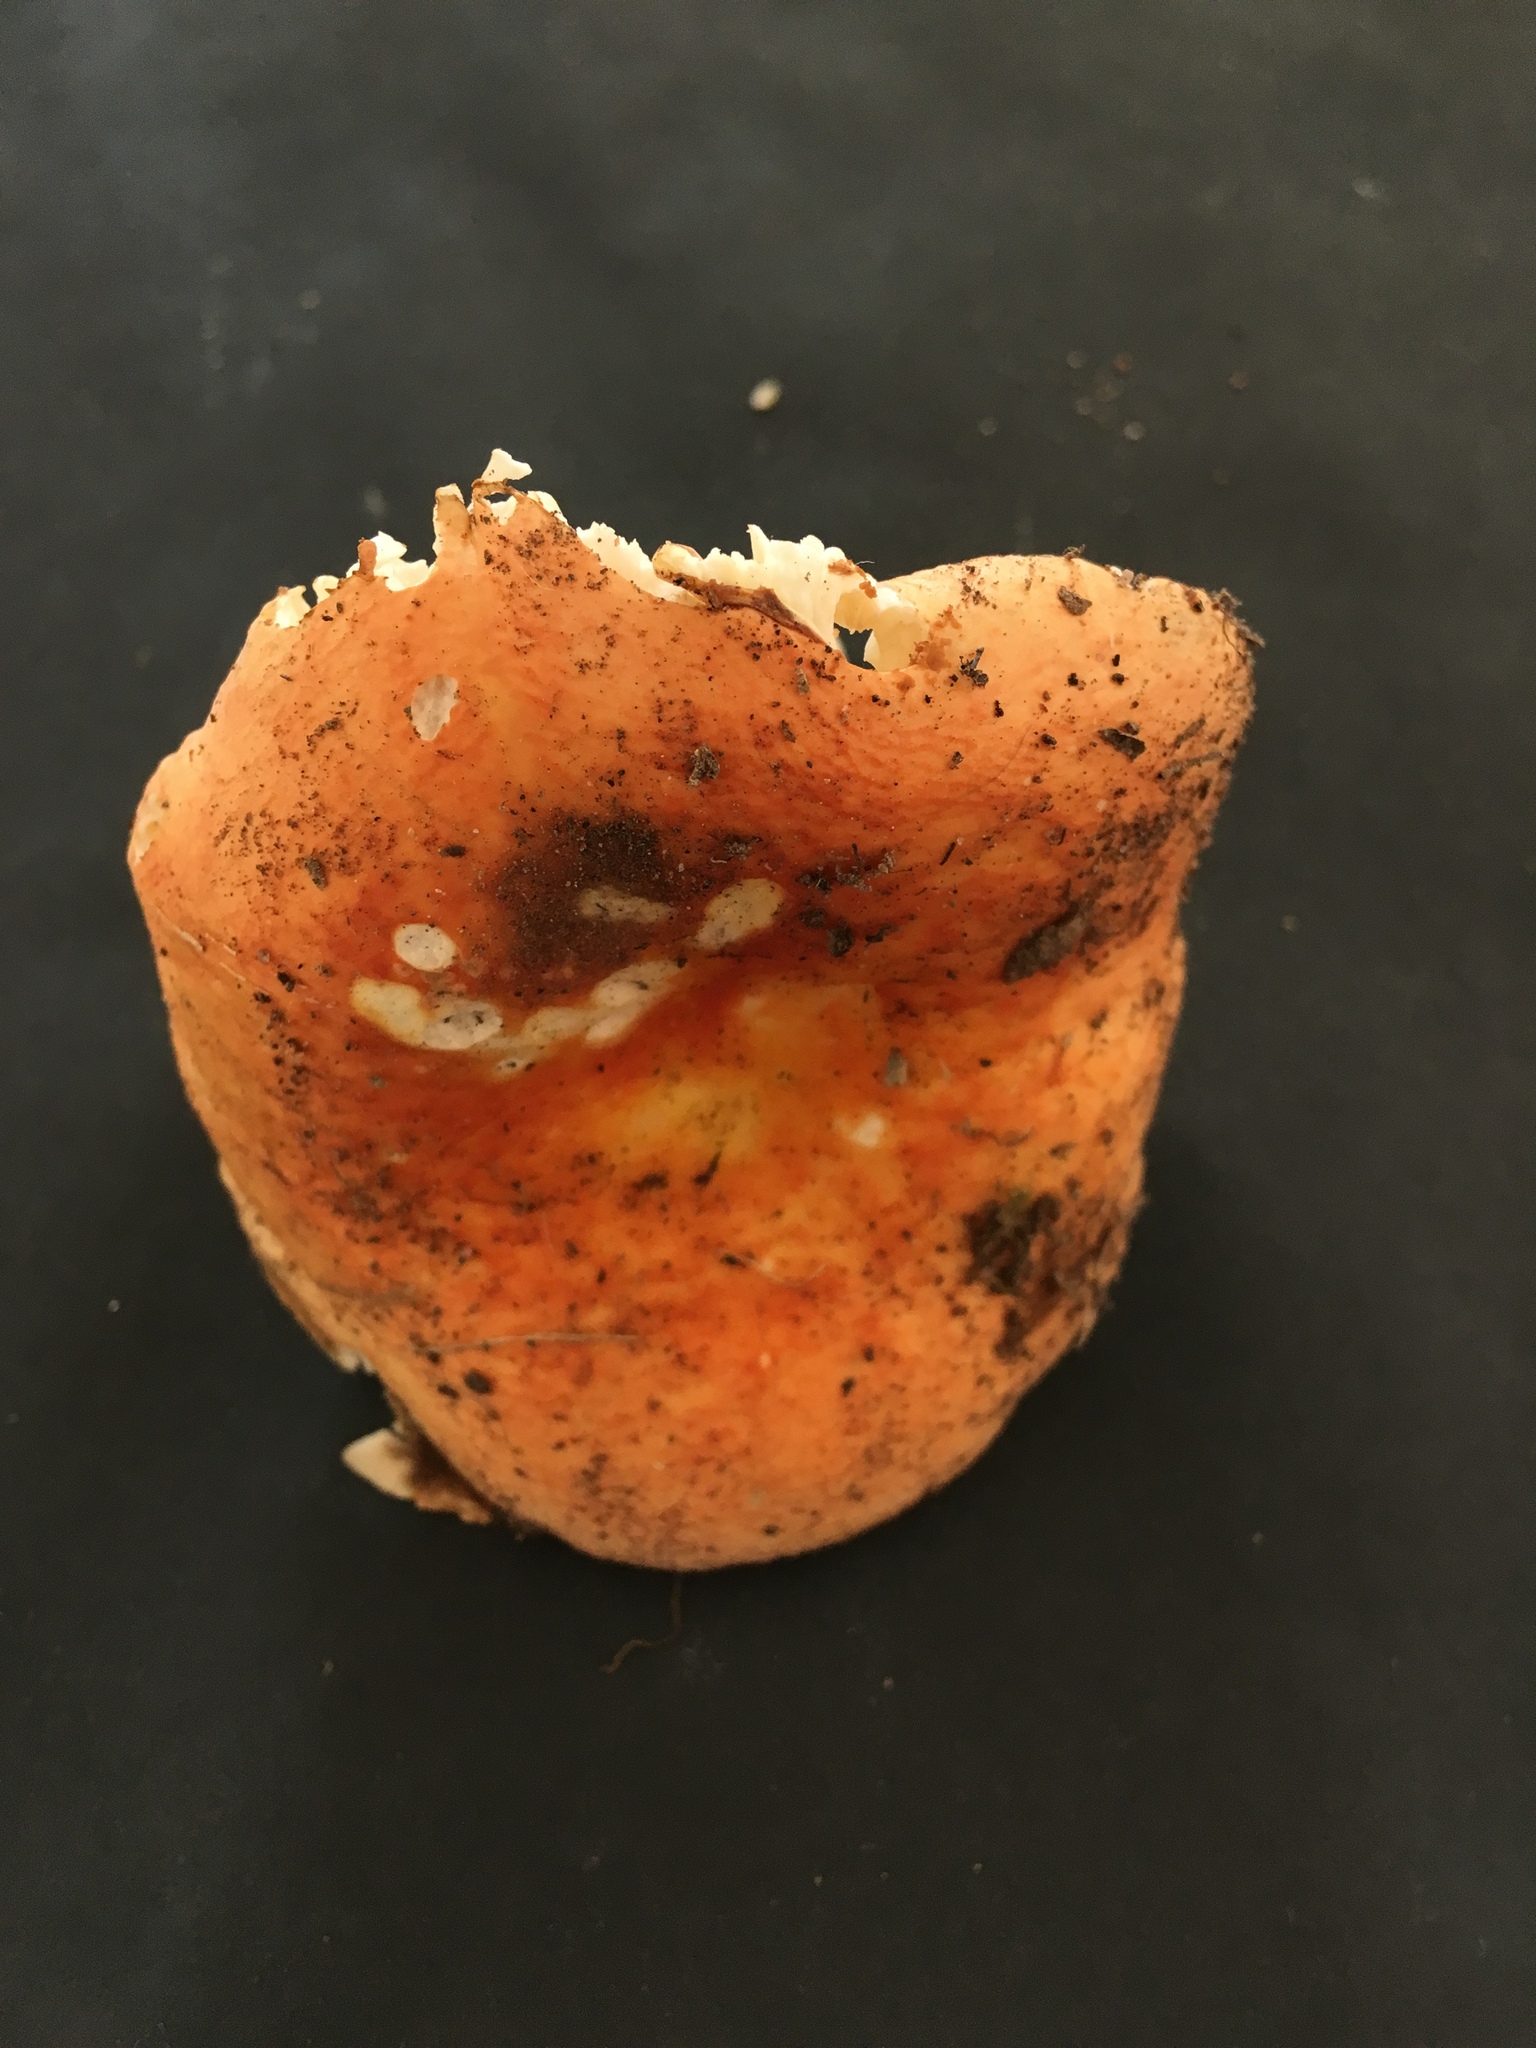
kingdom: Fungi
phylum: Basidiomycota
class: Agaricomycetes
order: Russulales
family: Russulaceae
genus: Russula
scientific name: Russula xerampelina
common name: Crab brittlegill
